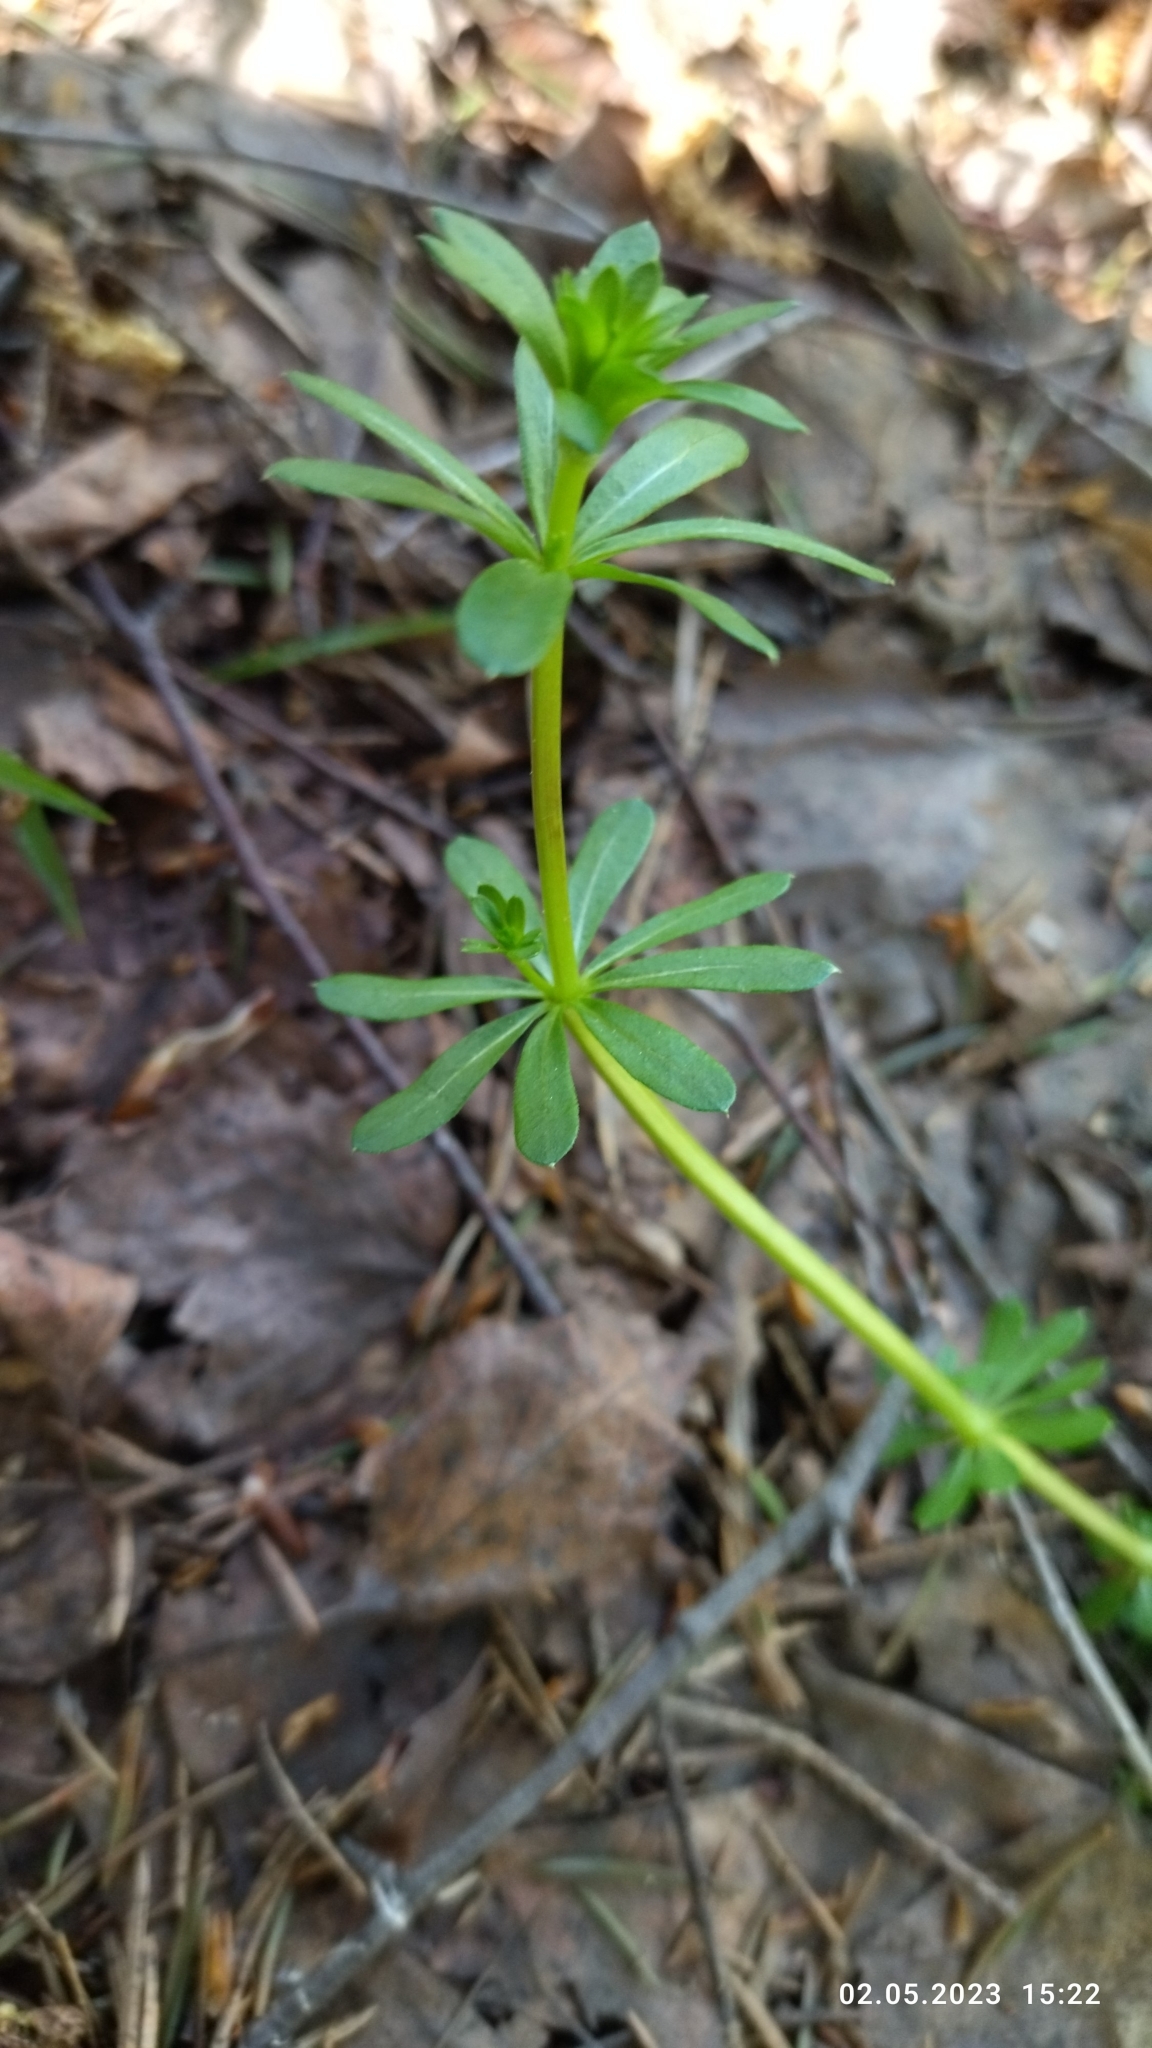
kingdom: Plantae
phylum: Tracheophyta
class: Magnoliopsida
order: Gentianales
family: Rubiaceae
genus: Galium
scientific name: Galium mollugo
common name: Hedge bedstraw
